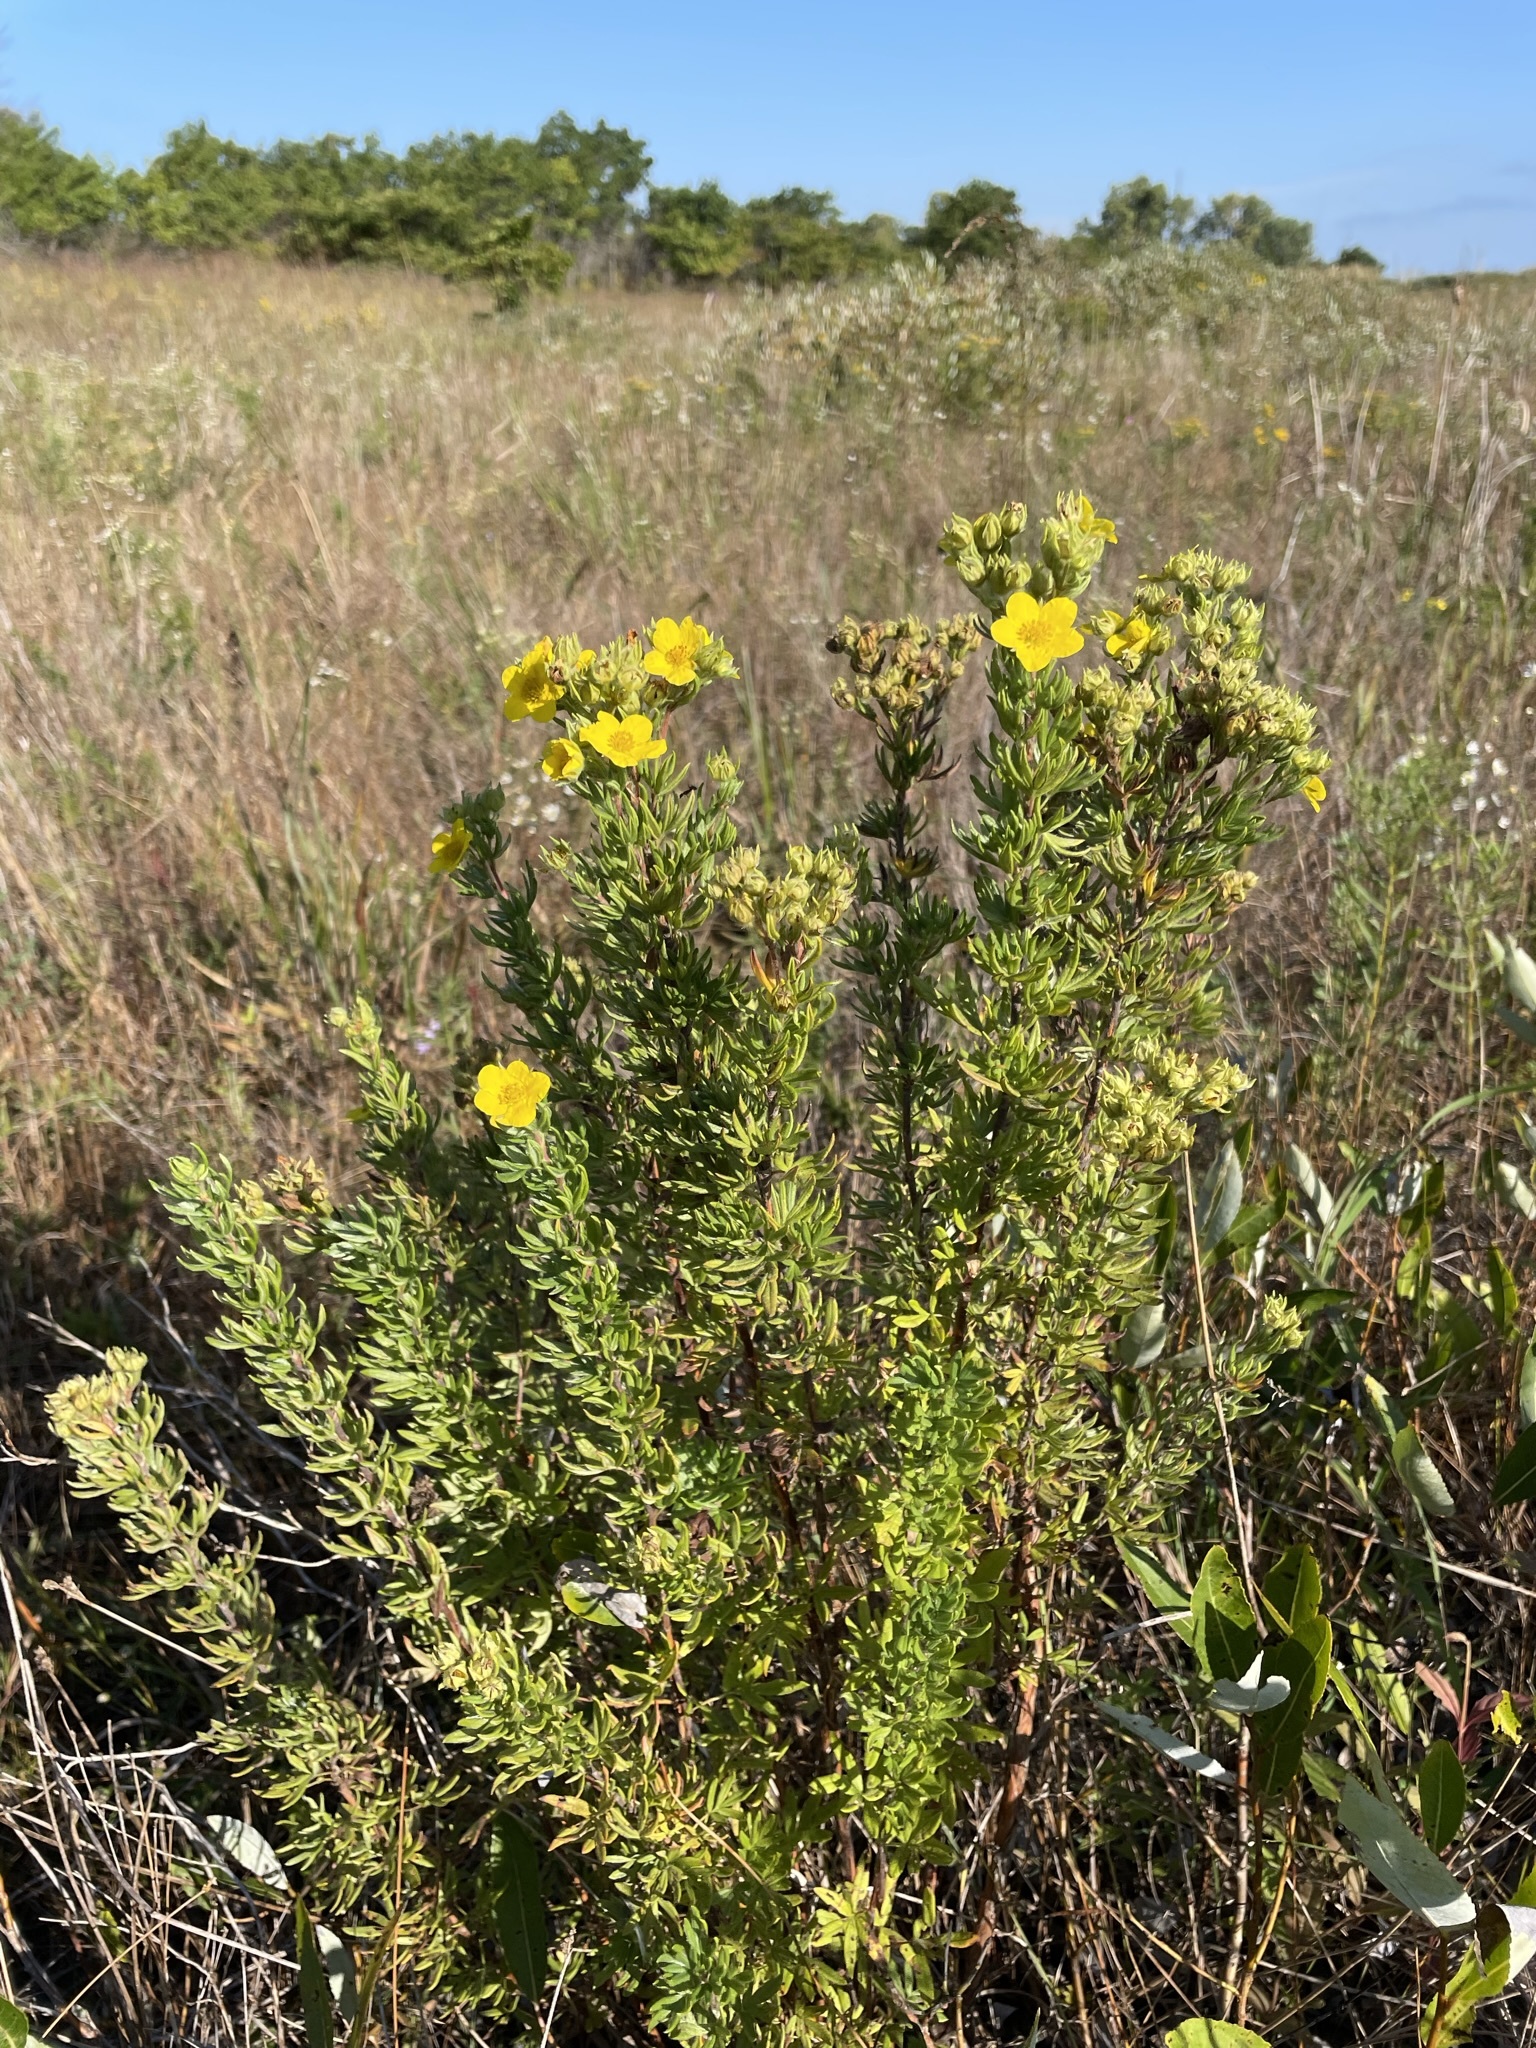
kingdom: Plantae
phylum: Tracheophyta
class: Magnoliopsida
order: Rosales
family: Rosaceae
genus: Dasiphora
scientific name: Dasiphora fruticosa
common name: Shrubby cinquefoil
